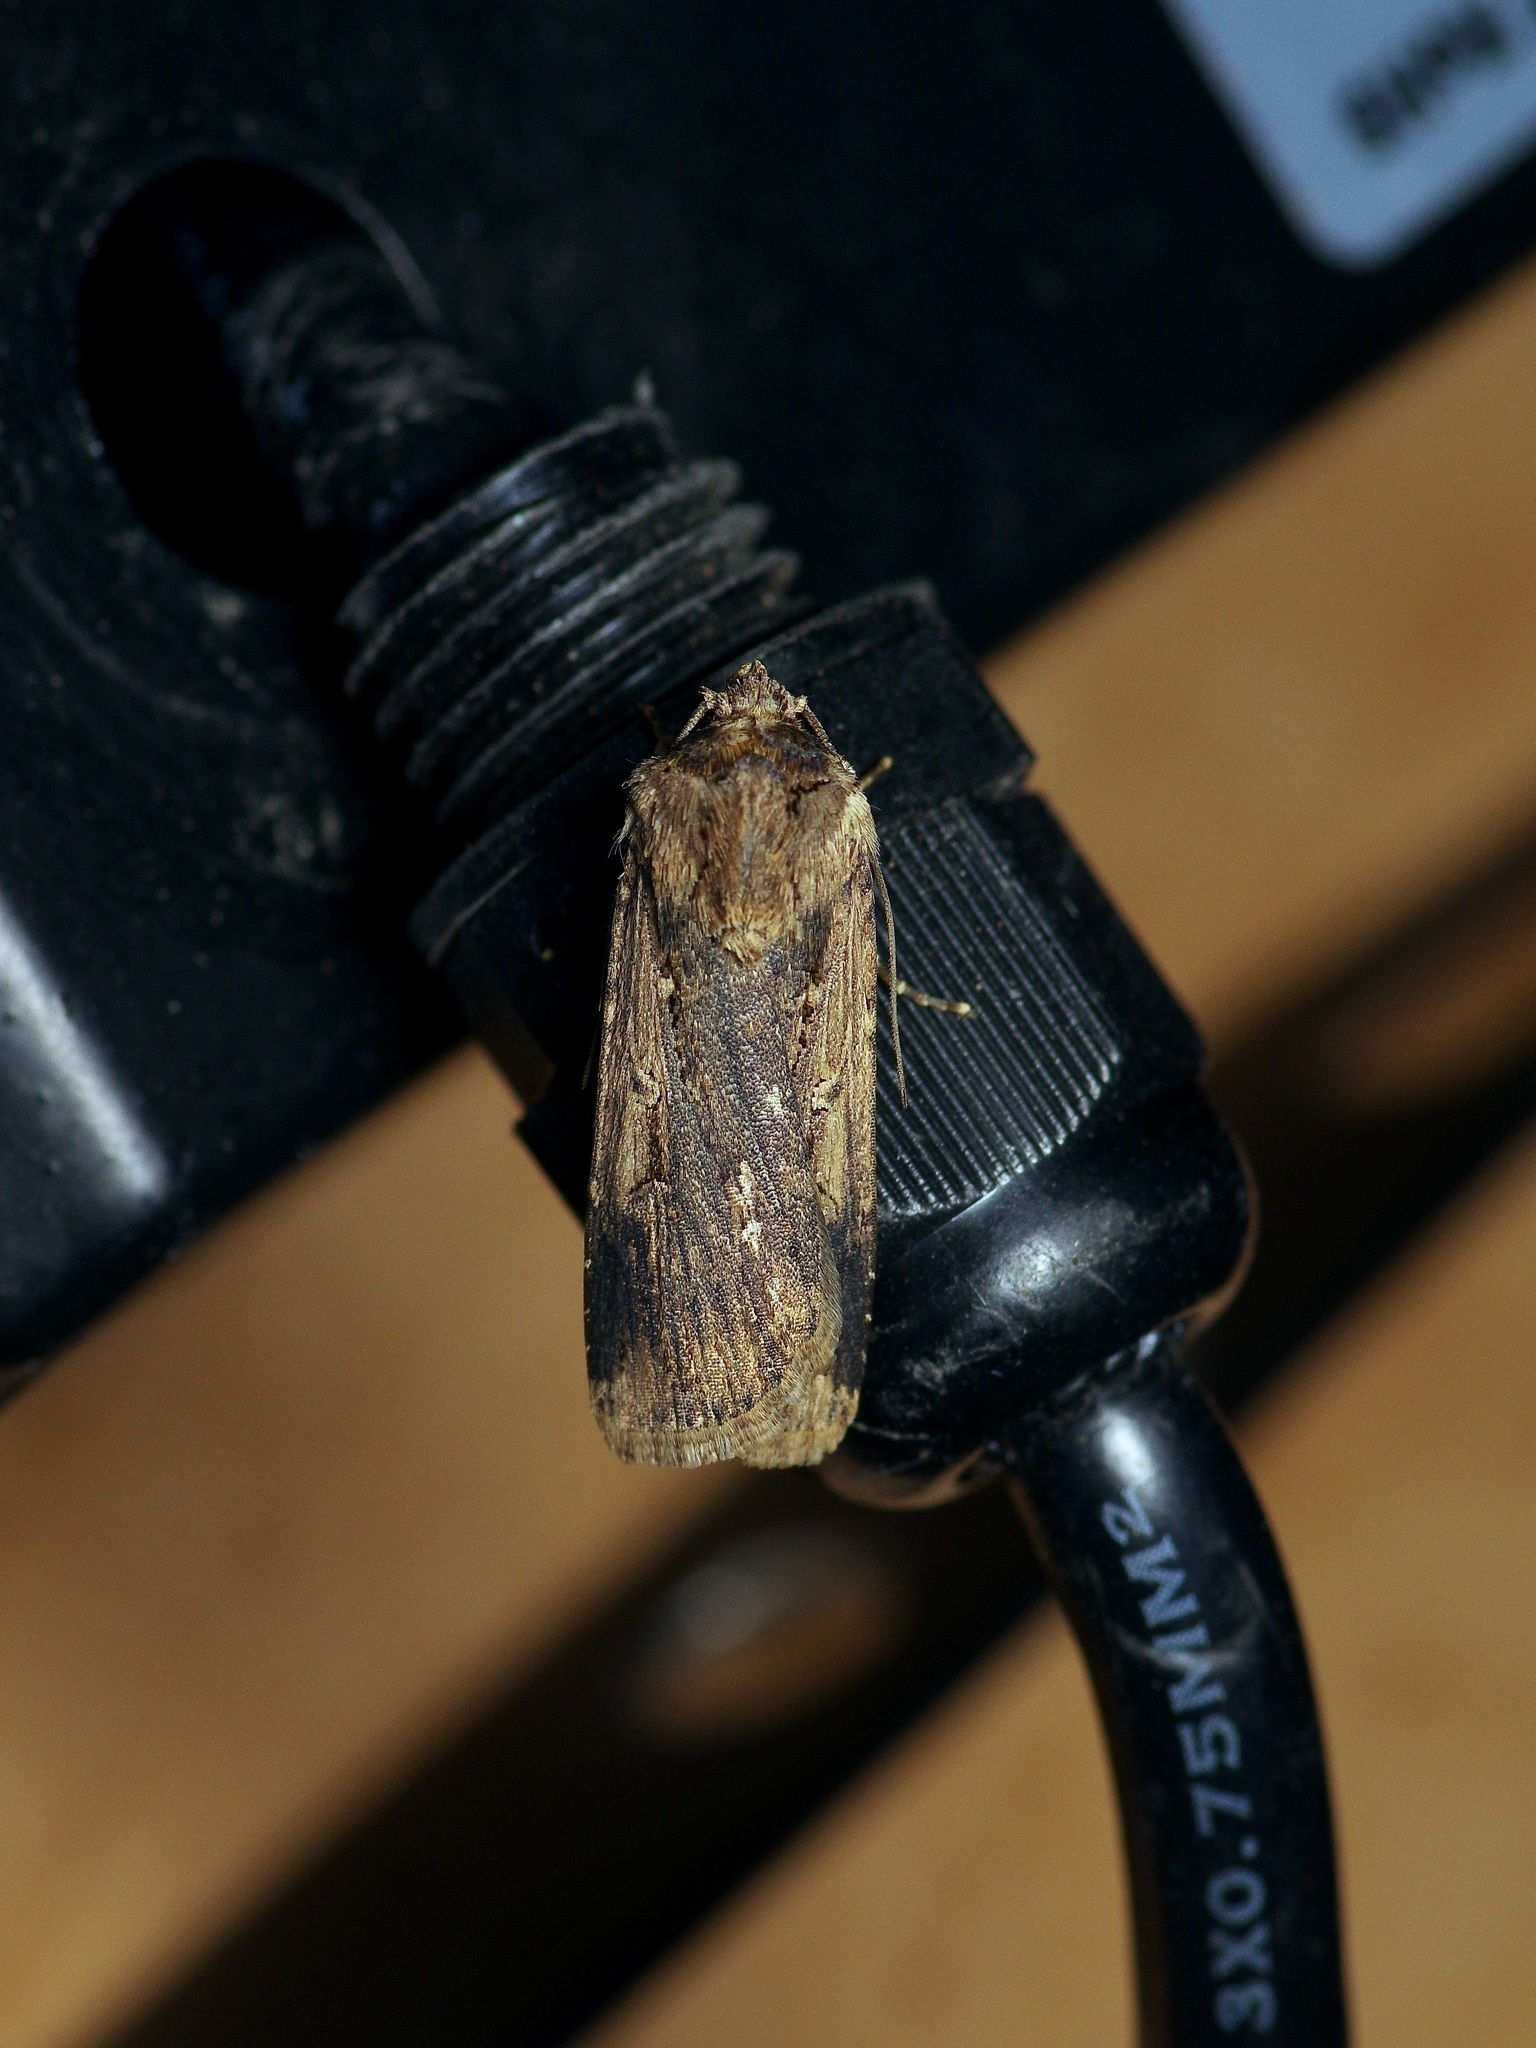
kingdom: Animalia
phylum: Arthropoda
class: Insecta
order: Lepidoptera
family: Noctuidae
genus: Feltia
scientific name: Feltia subterranea
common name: Granulate cutworm
